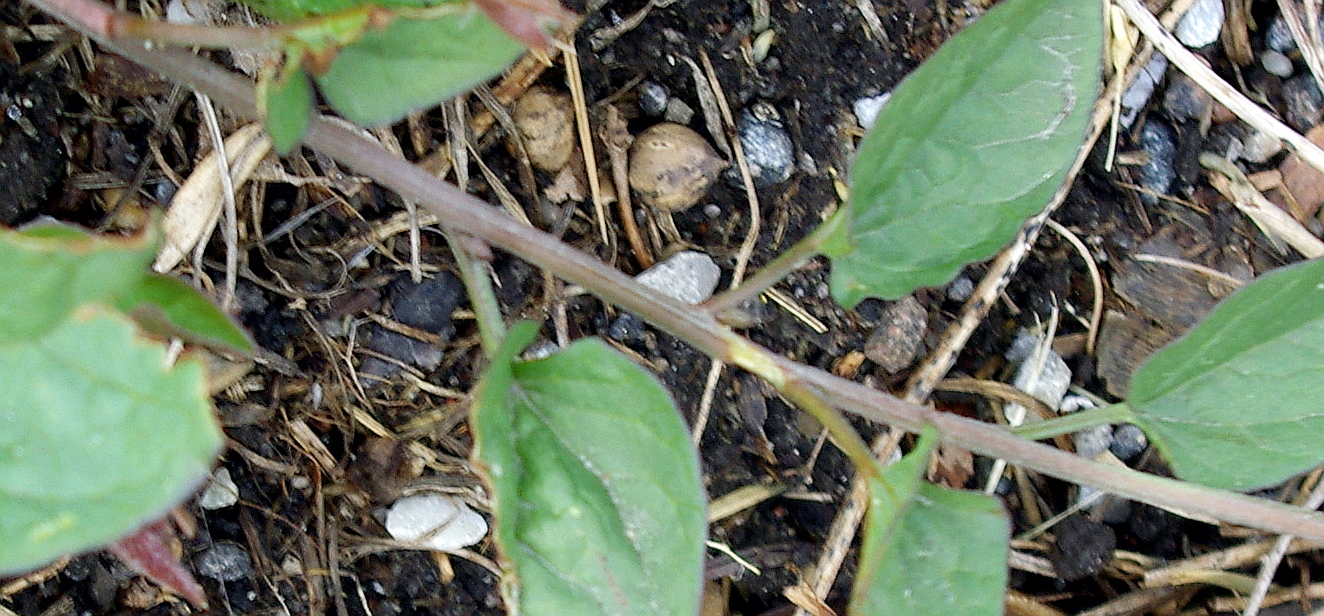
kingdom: Plantae
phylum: Tracheophyta
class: Magnoliopsida
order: Solanales
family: Convolvulaceae
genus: Convolvulus
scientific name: Convolvulus arvensis
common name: Field bindweed
